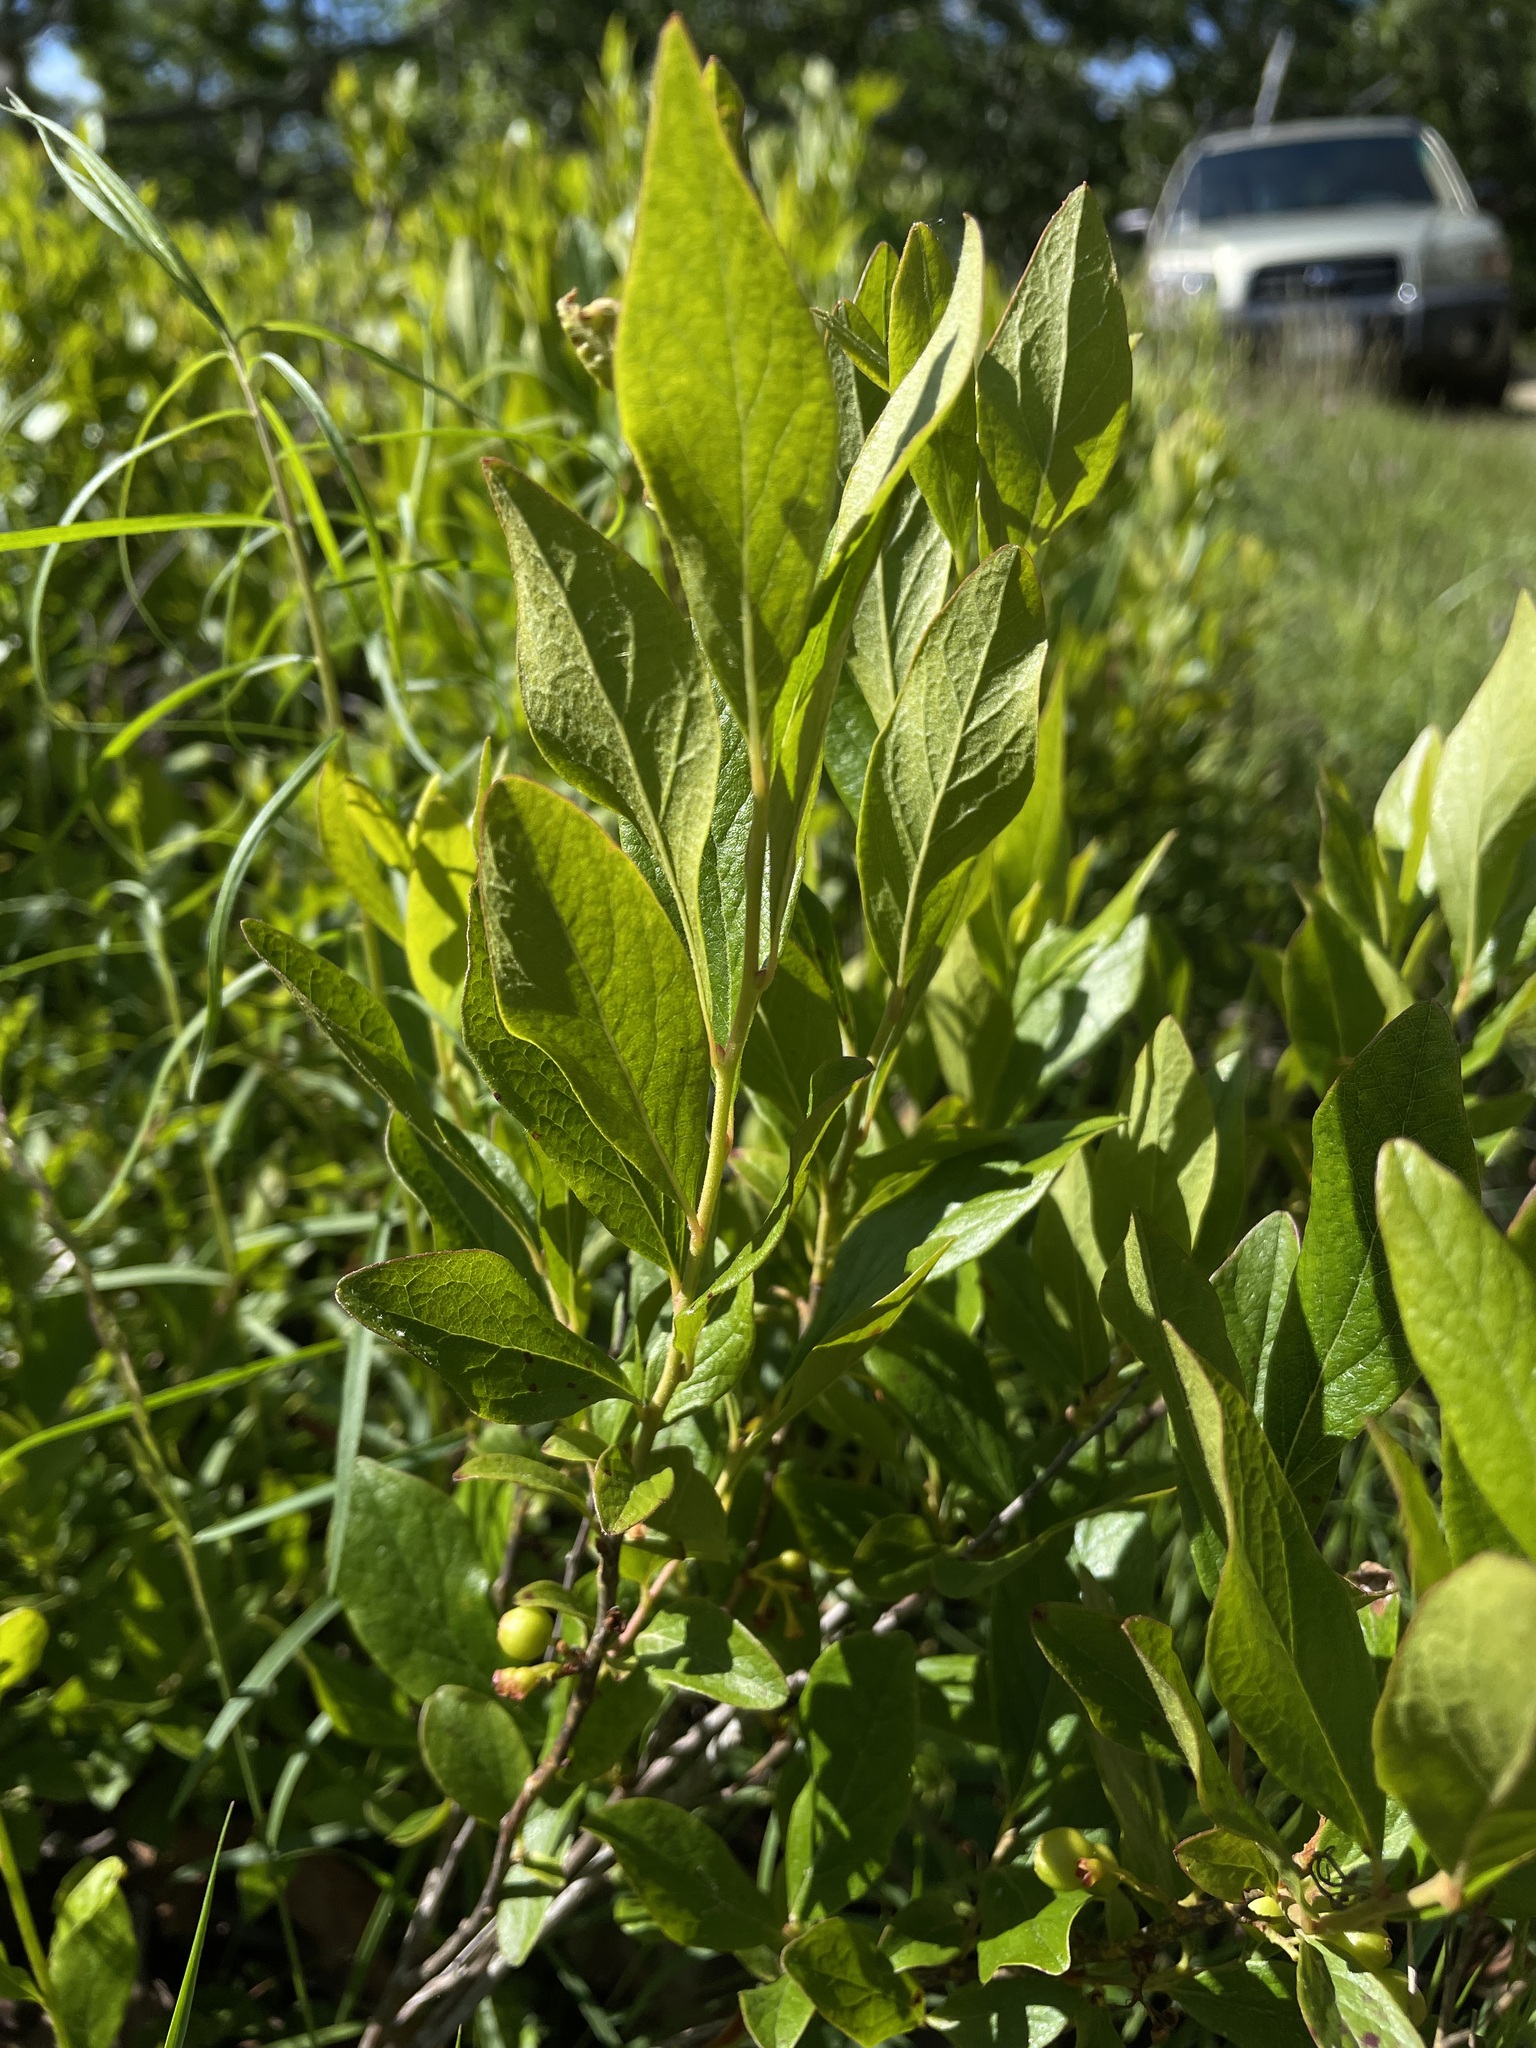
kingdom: Plantae
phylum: Tracheophyta
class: Magnoliopsida
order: Ericales
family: Ericaceae
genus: Gaylussacia
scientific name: Gaylussacia baccata
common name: Black huckleberry
